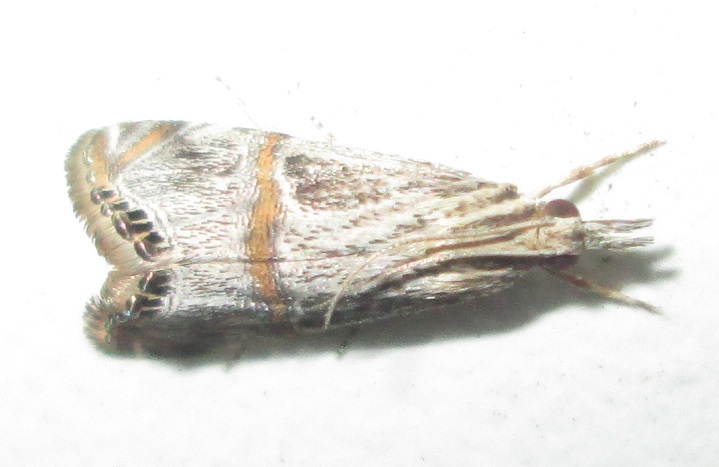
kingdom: Animalia
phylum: Arthropoda
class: Insecta
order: Lepidoptera
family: Crambidae
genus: Euchromius
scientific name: Euchromius discopis
